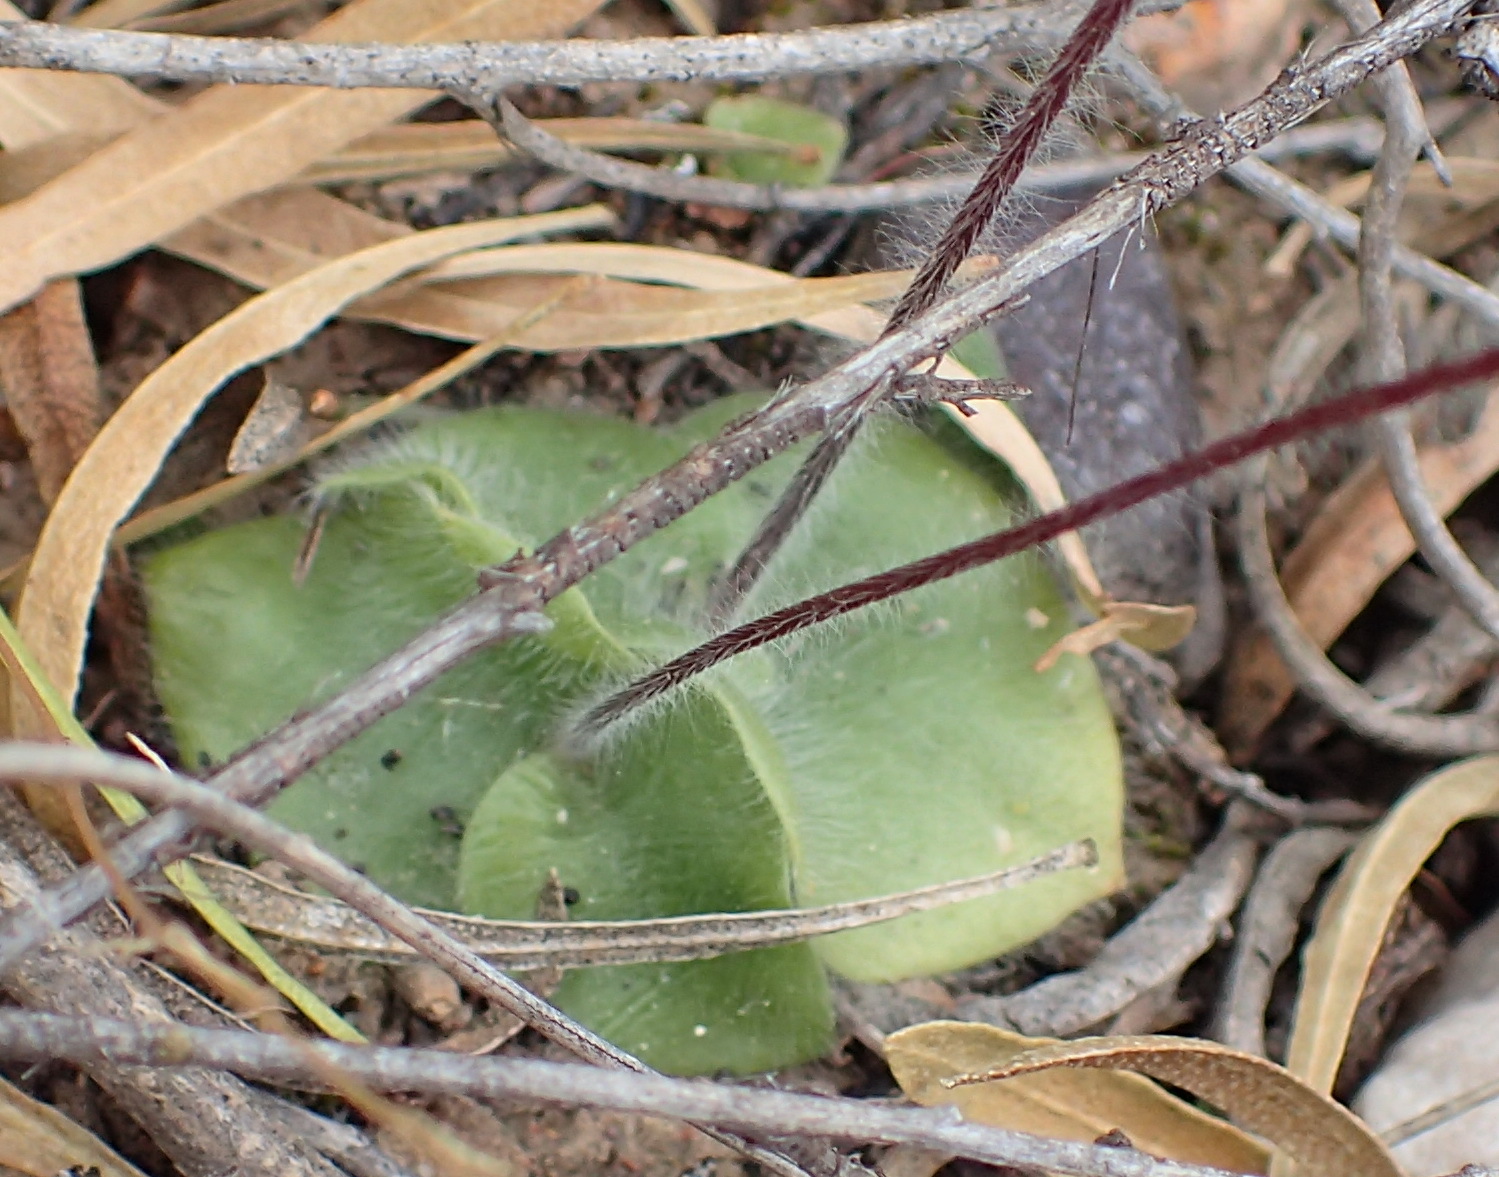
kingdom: Plantae
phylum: Tracheophyta
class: Liliopsida
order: Asparagales
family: Orchidaceae
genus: Holothrix
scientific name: Holothrix villosa
